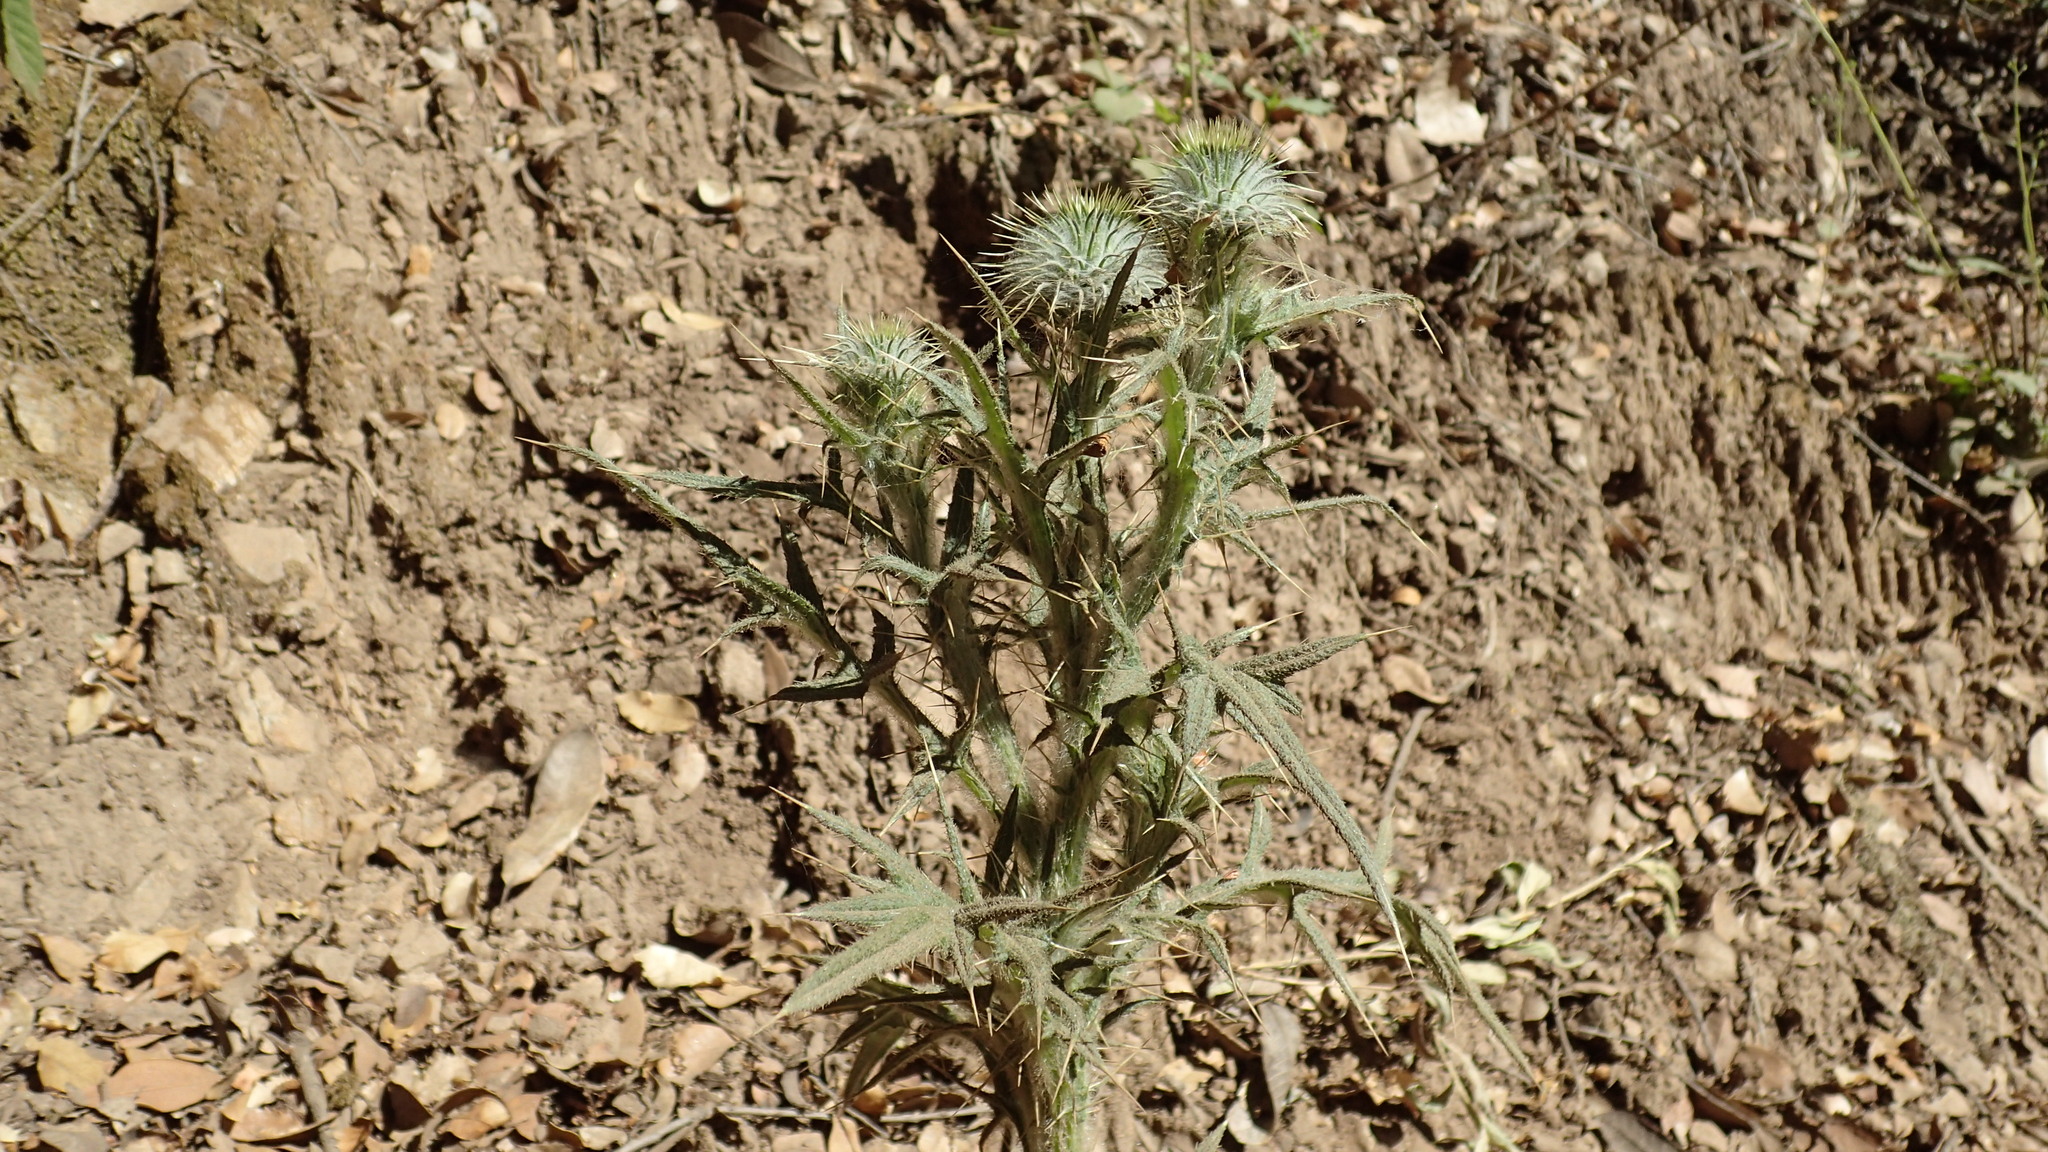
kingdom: Plantae
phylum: Tracheophyta
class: Magnoliopsida
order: Asterales
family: Asteraceae
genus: Cirsium
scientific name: Cirsium vulgare
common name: Bull thistle
